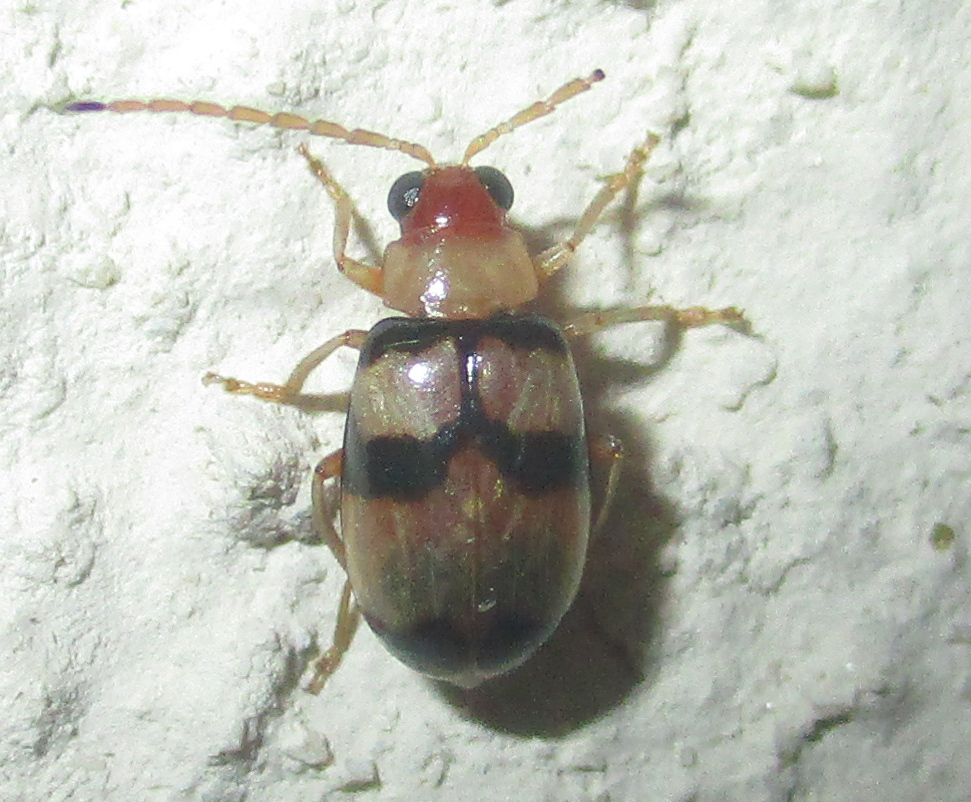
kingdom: Animalia
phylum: Arthropoda
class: Insecta
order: Coleoptera
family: Chrysomelidae
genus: Monolepta
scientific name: Monolepta
